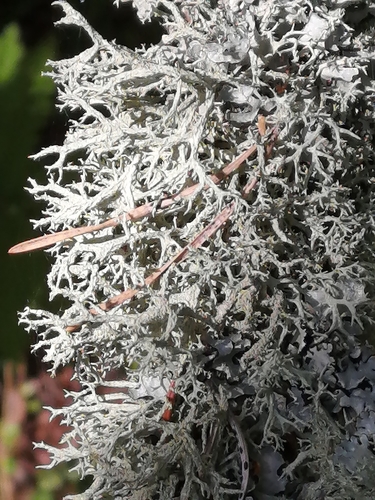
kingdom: Fungi
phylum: Ascomycota
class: Lecanoromycetes
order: Lecanorales
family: Parmeliaceae
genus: Evernia
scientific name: Evernia mesomorpha
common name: Boreal oak moss lichen
